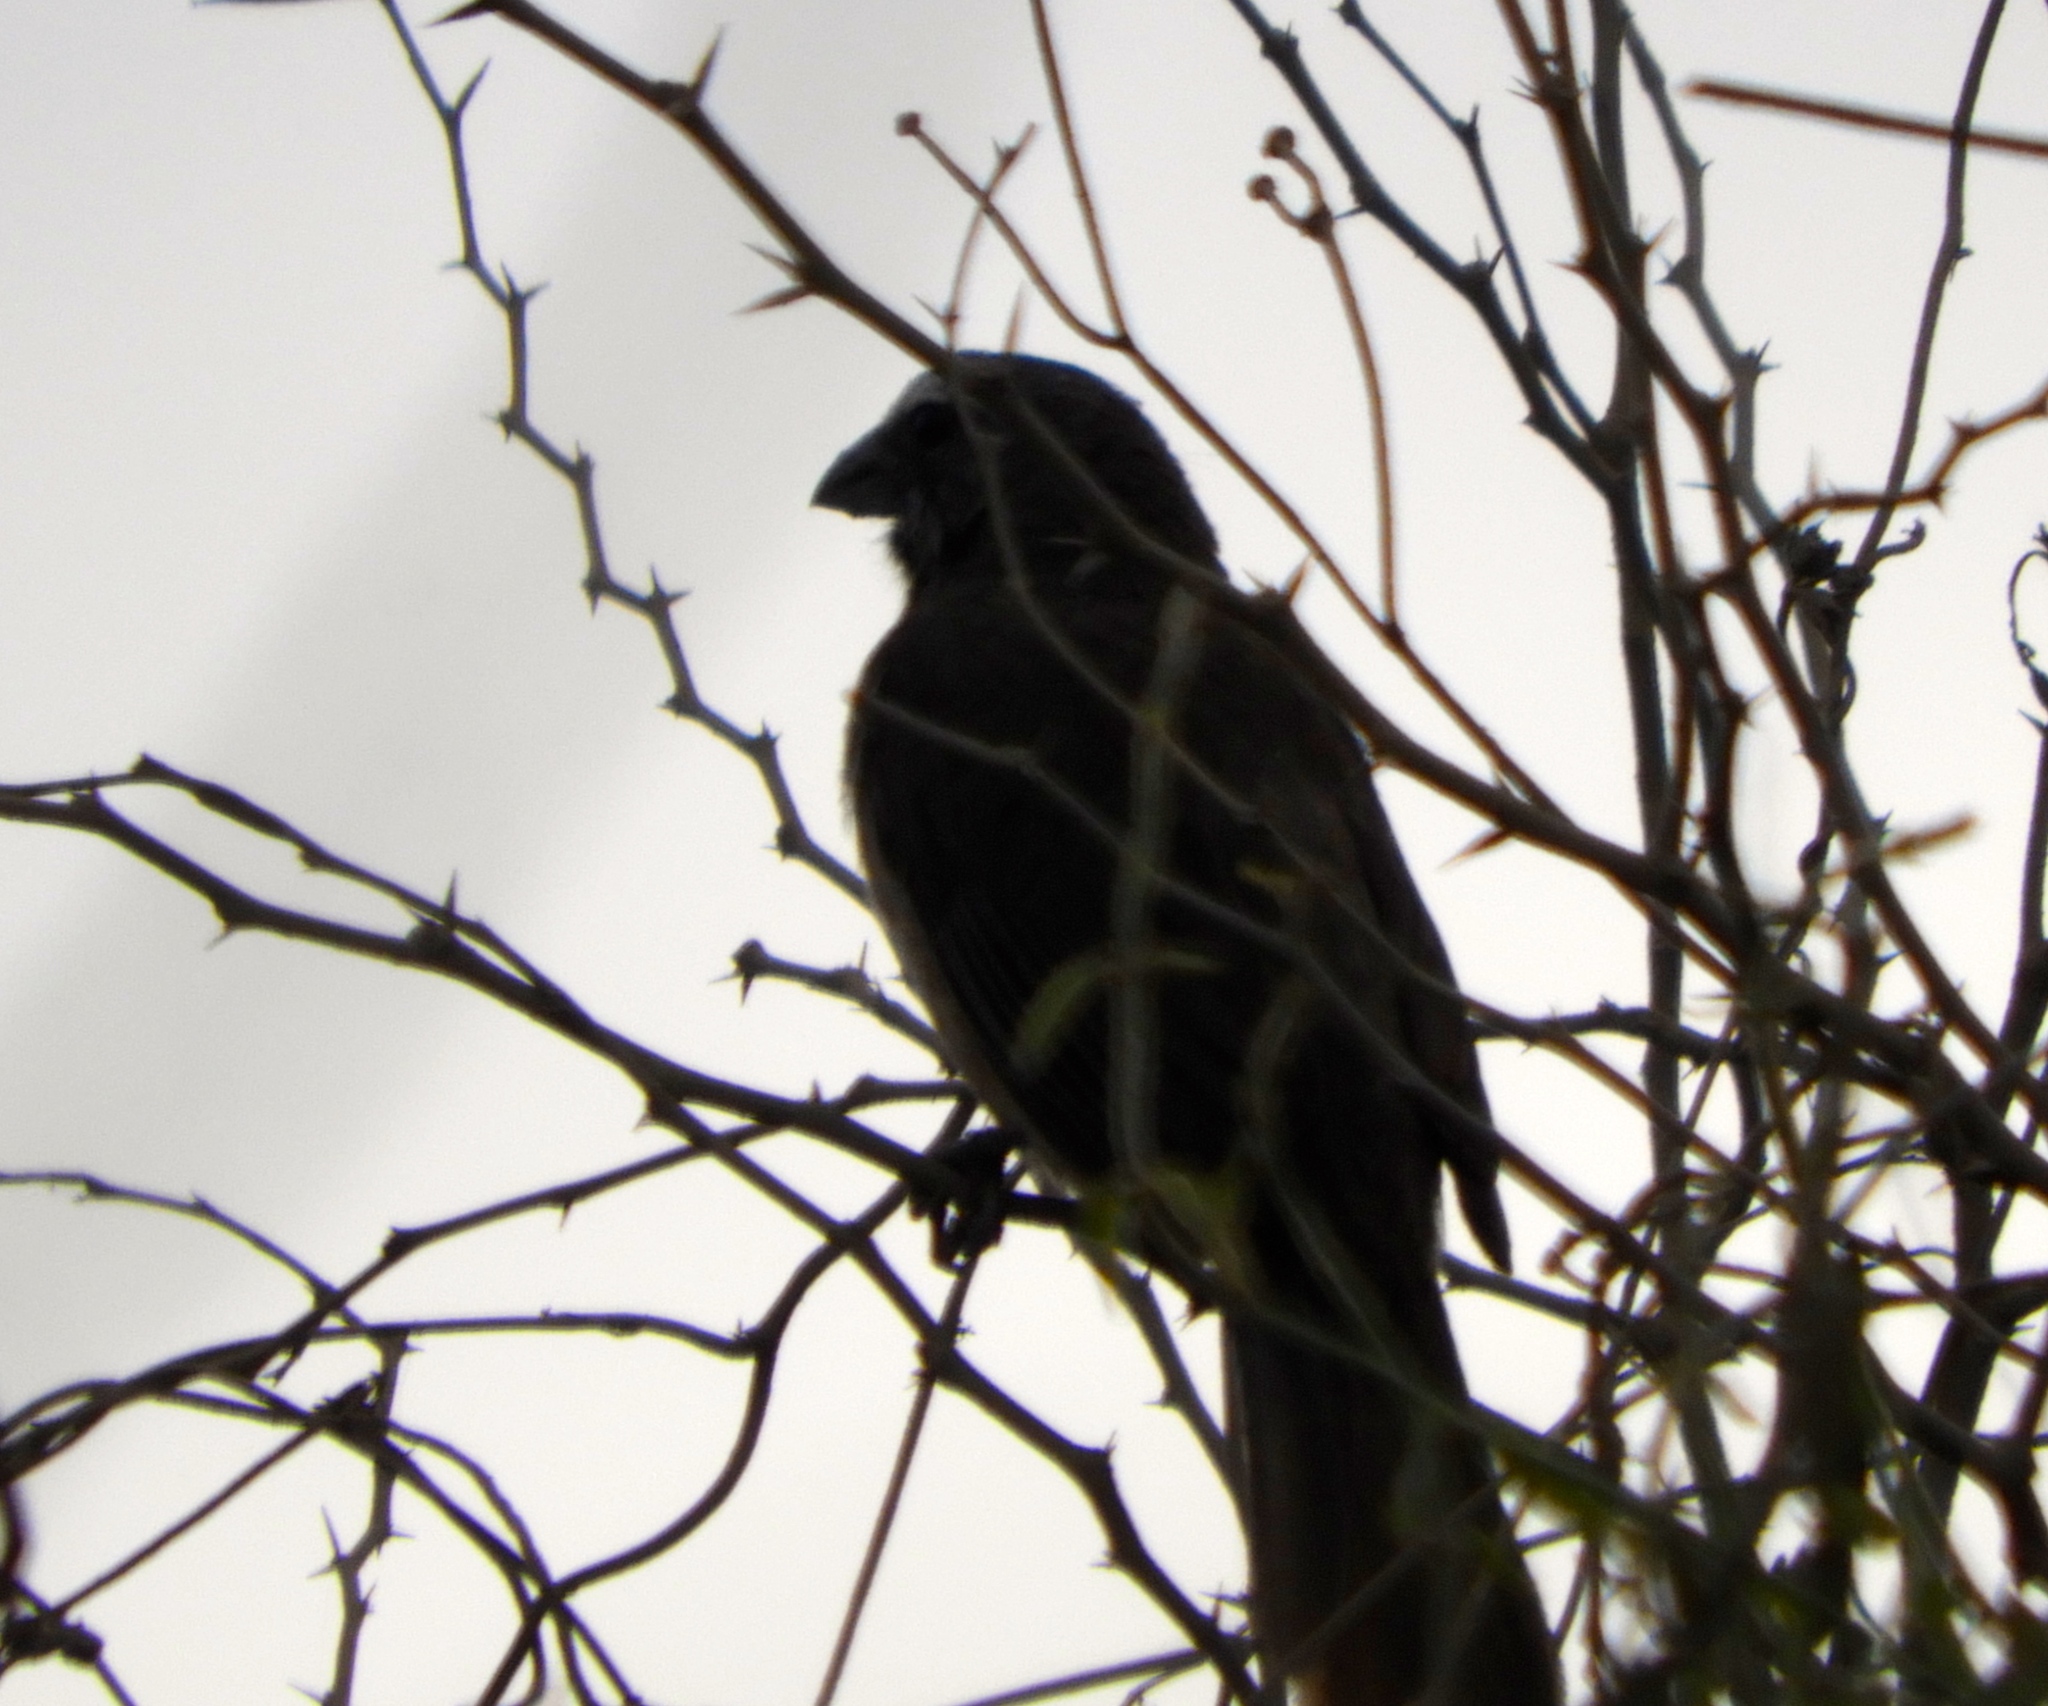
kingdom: Animalia
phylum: Chordata
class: Aves
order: Passeriformes
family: Thraupidae
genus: Saltator
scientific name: Saltator grandis
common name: Cinnamon-bellied saltator
